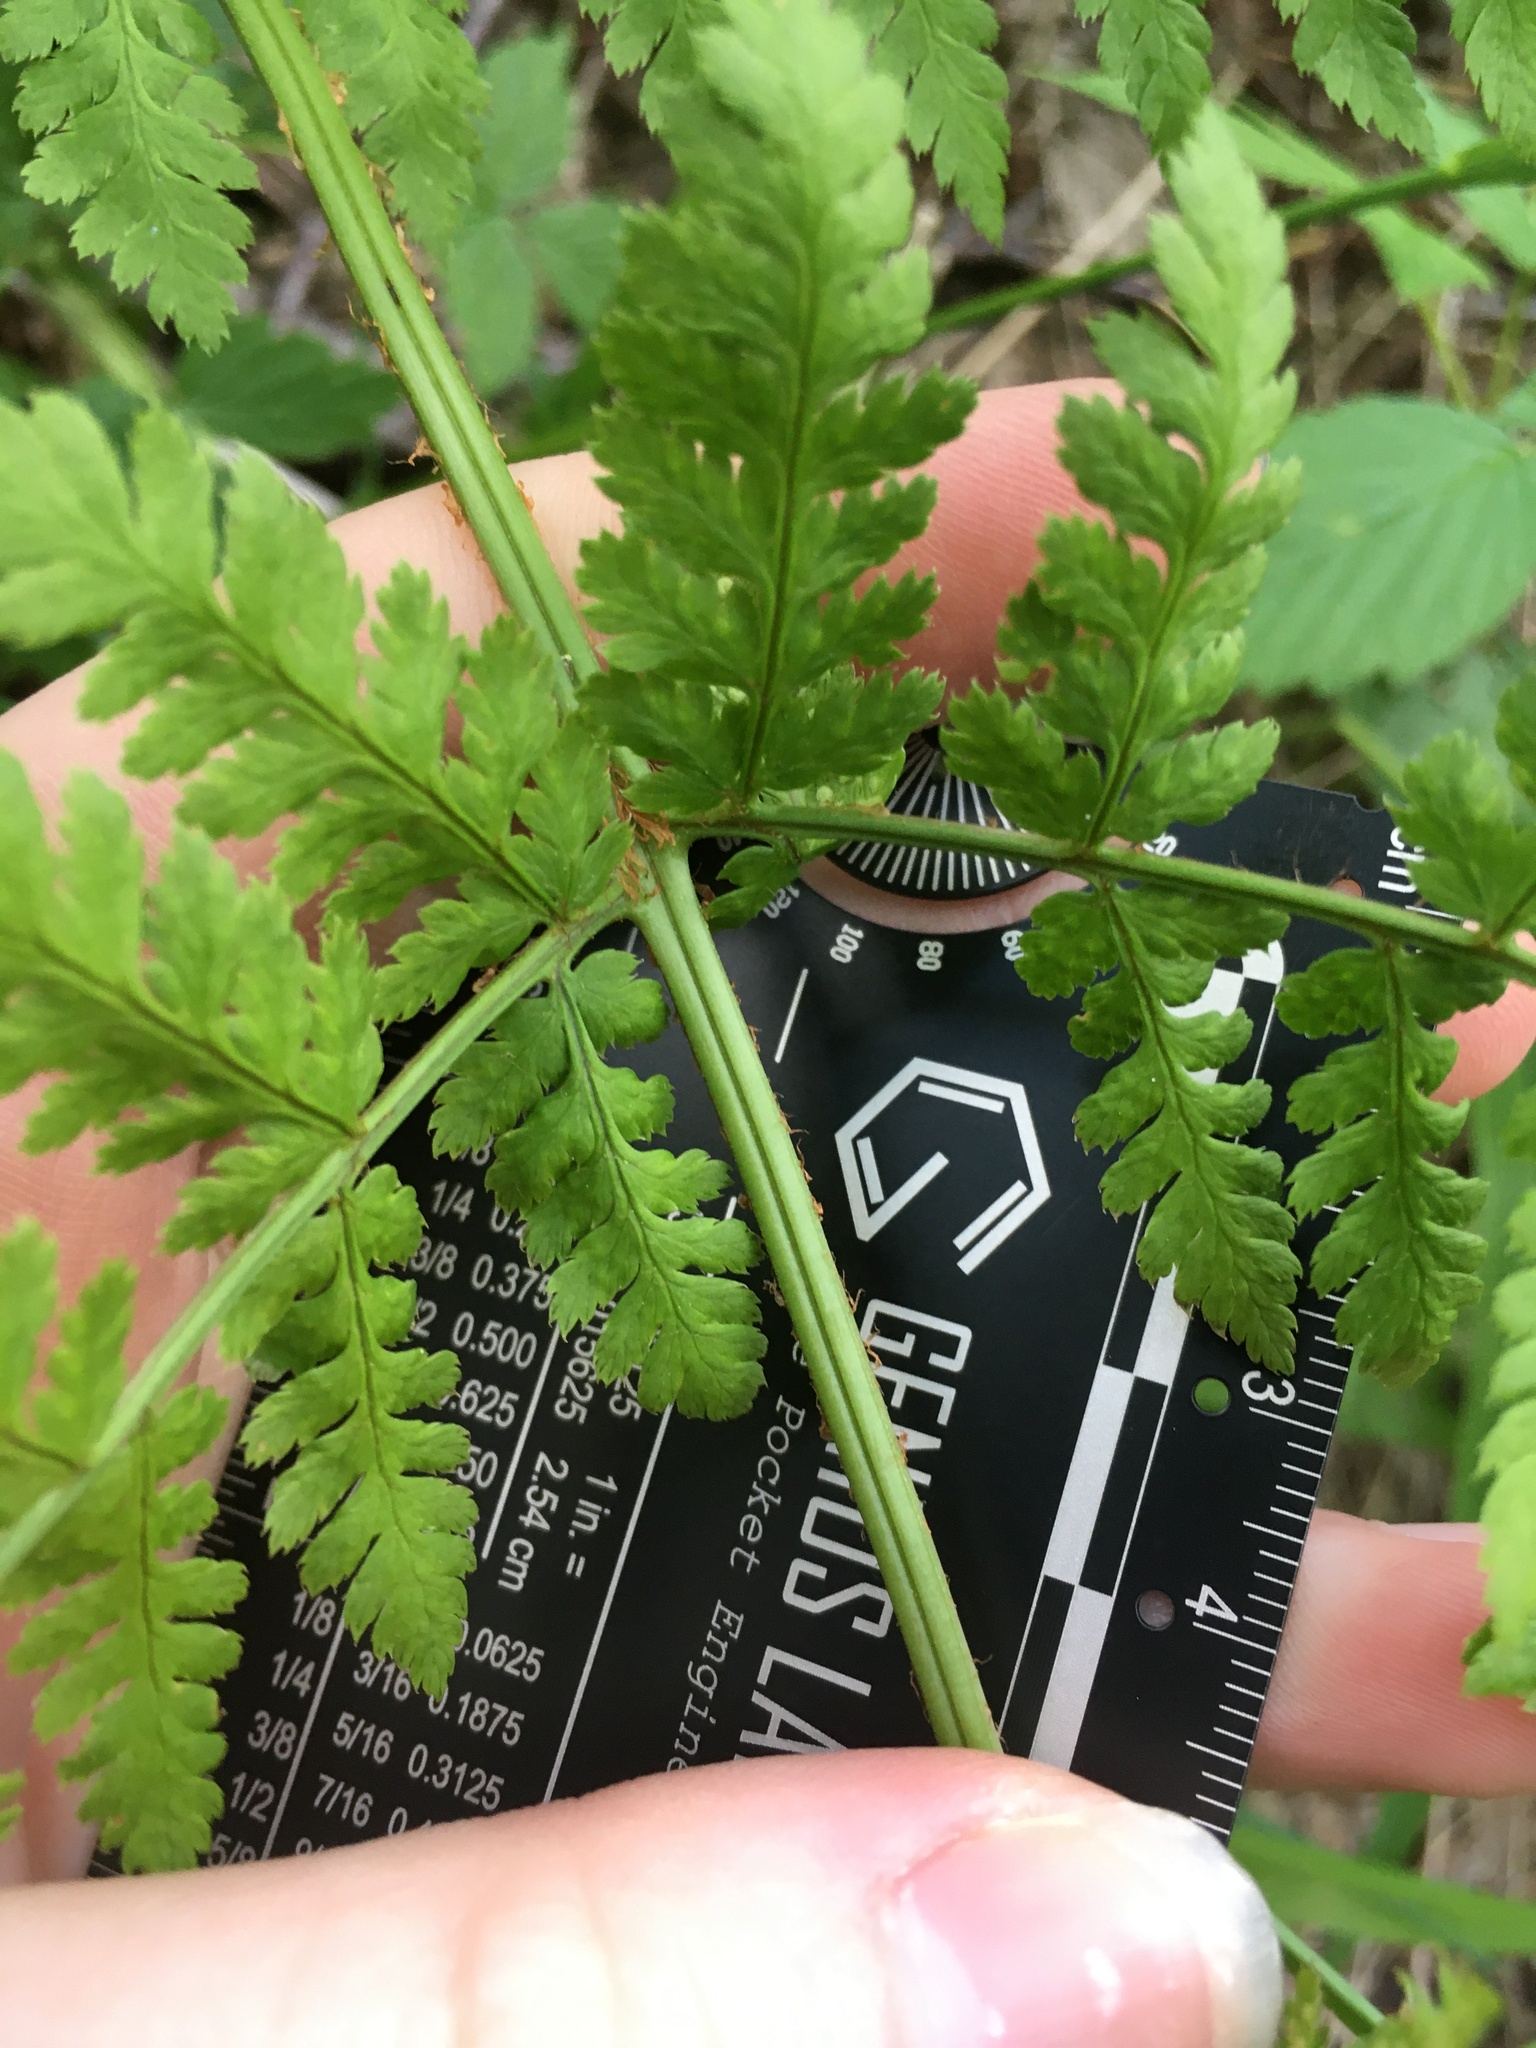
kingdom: Plantae
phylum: Tracheophyta
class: Polypodiopsida
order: Polypodiales
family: Dryopteridaceae
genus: Dryopteris
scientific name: Dryopteris campyloptera
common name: Mountain wood fern
